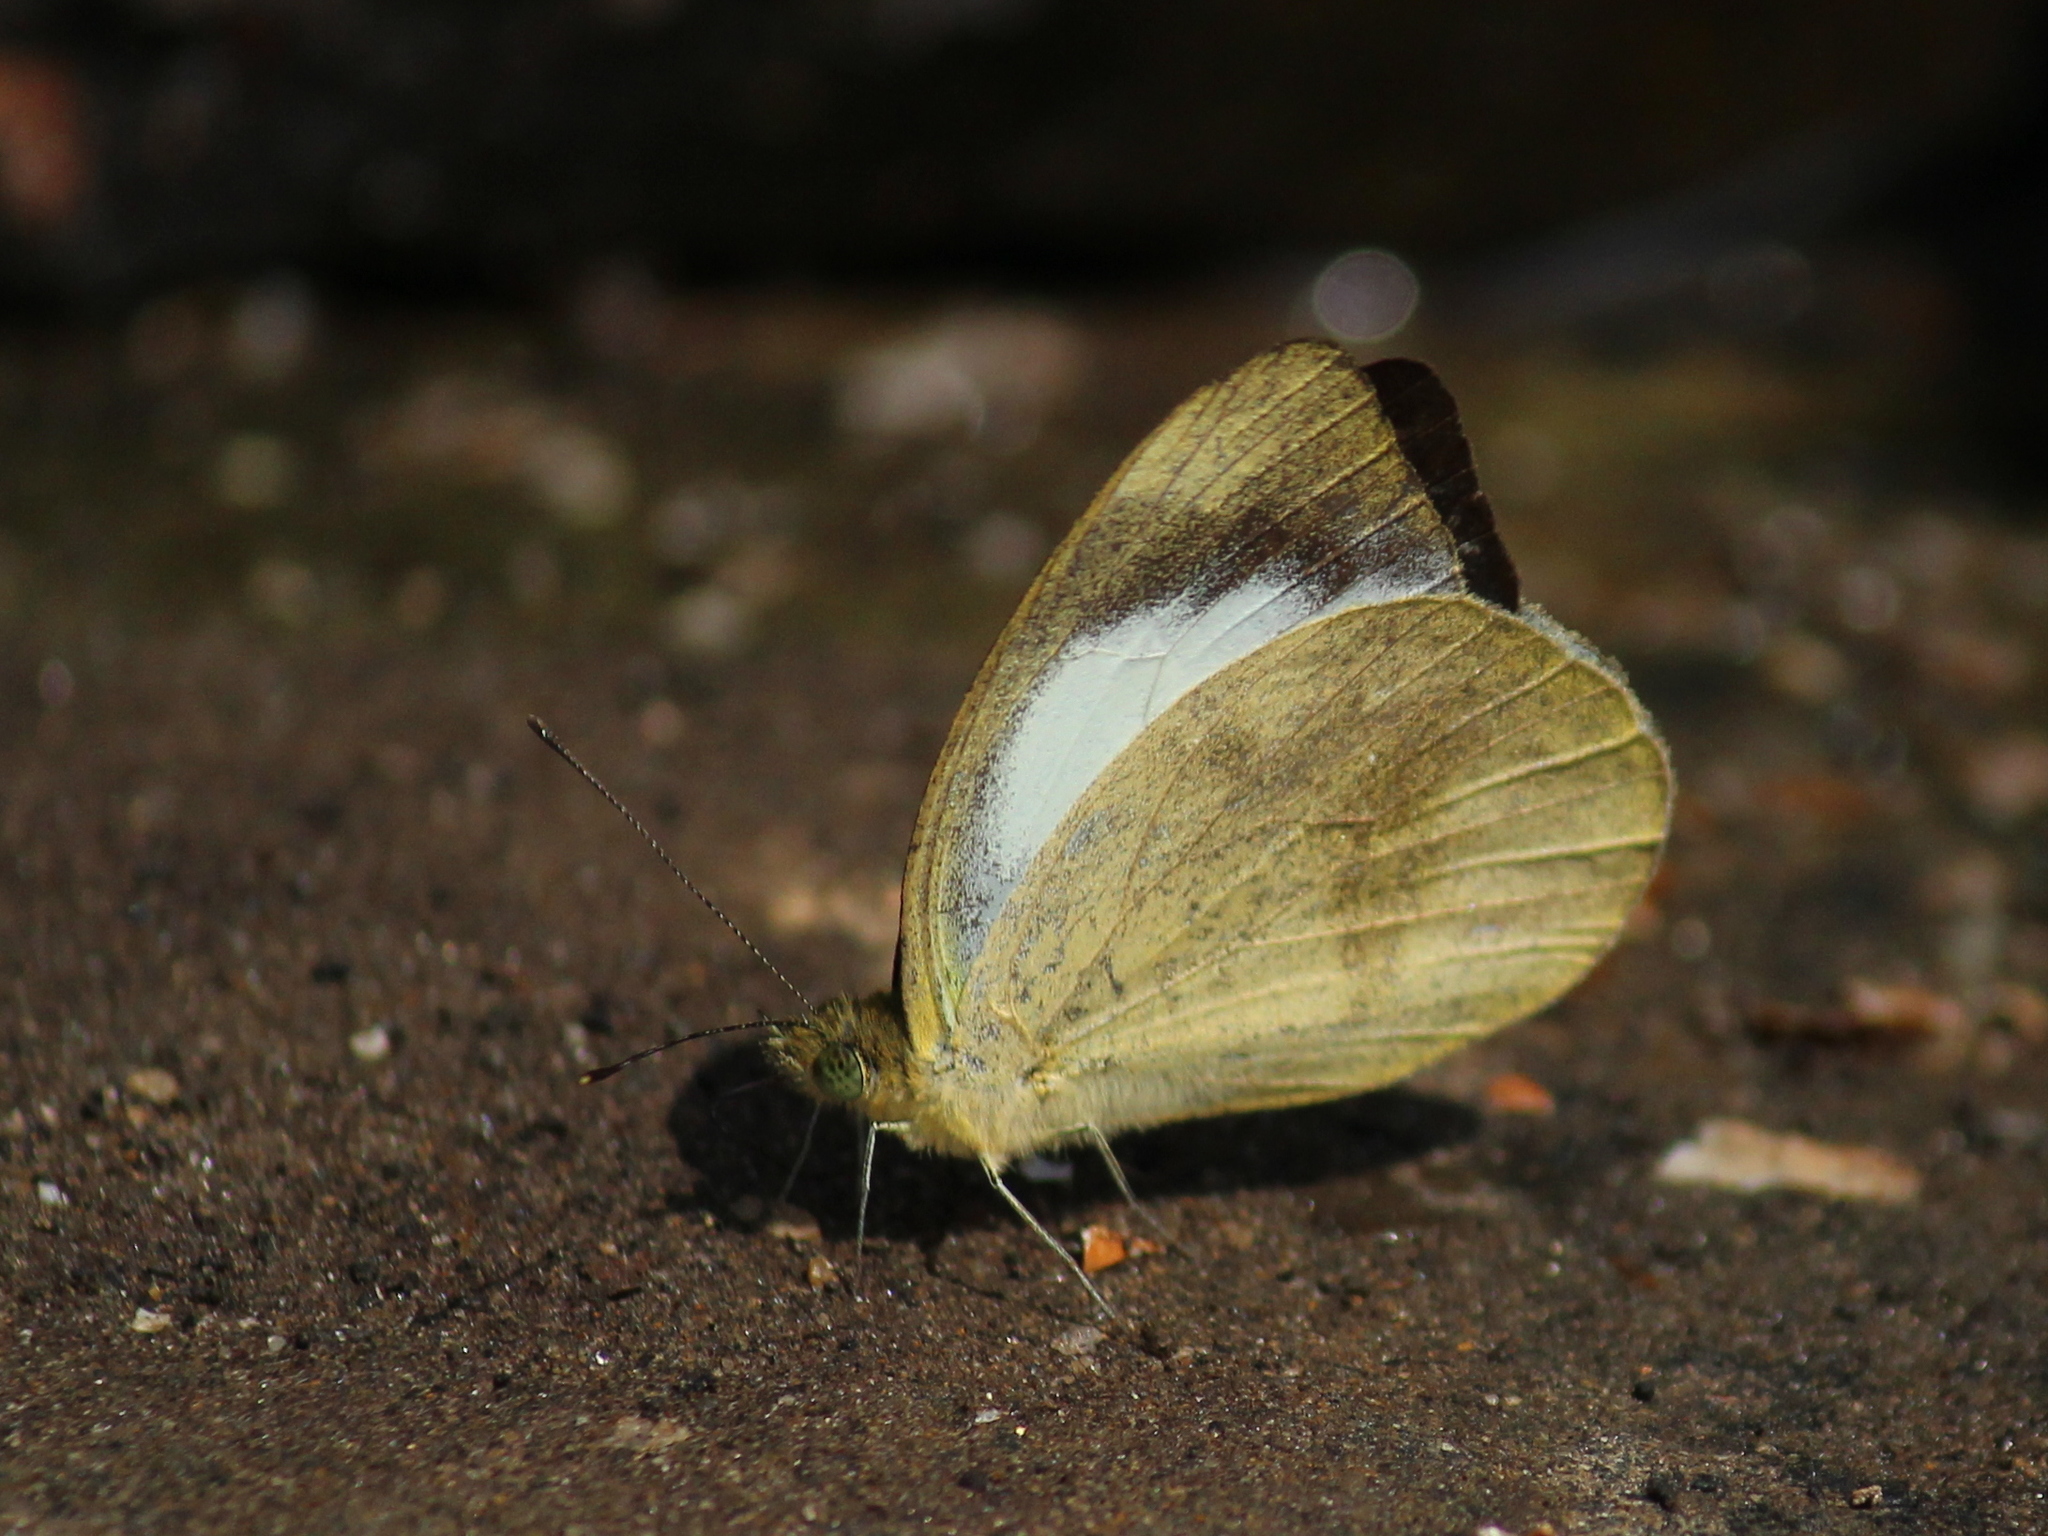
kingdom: Animalia
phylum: Arthropoda
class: Insecta
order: Lepidoptera
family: Pieridae
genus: Appias
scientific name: Appias indra
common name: Plain puffin
